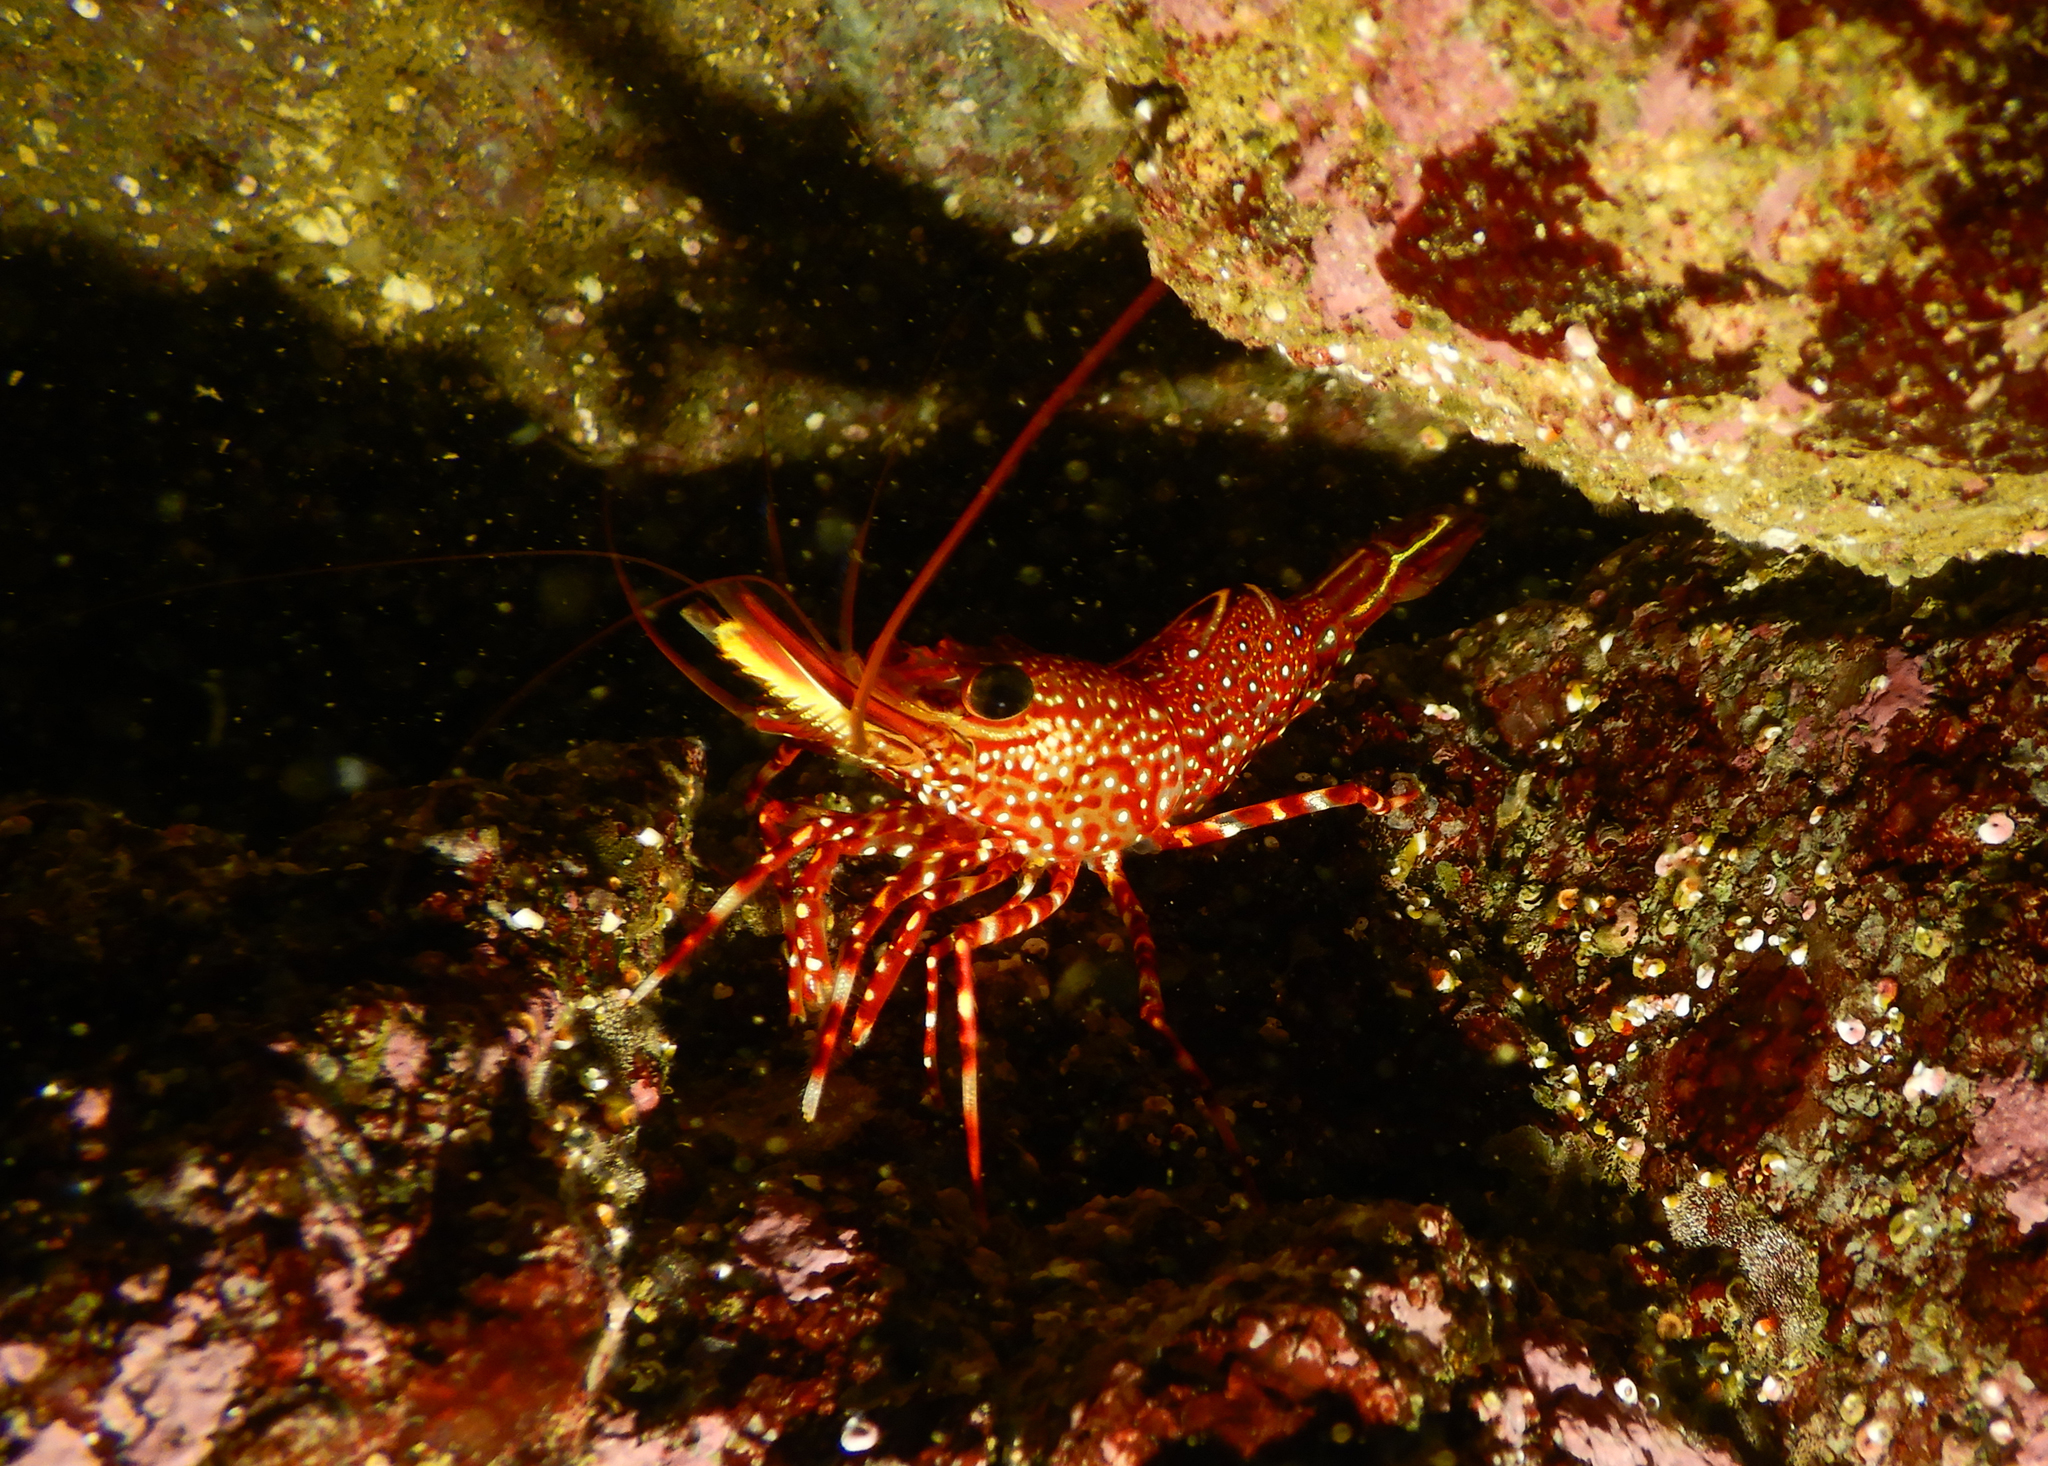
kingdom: Animalia
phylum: Arthropoda
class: Malacostraca
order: Decapoda
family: Rhynchocinetidae
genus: Rhynchocinetes
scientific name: Rhynchocinetes typus
